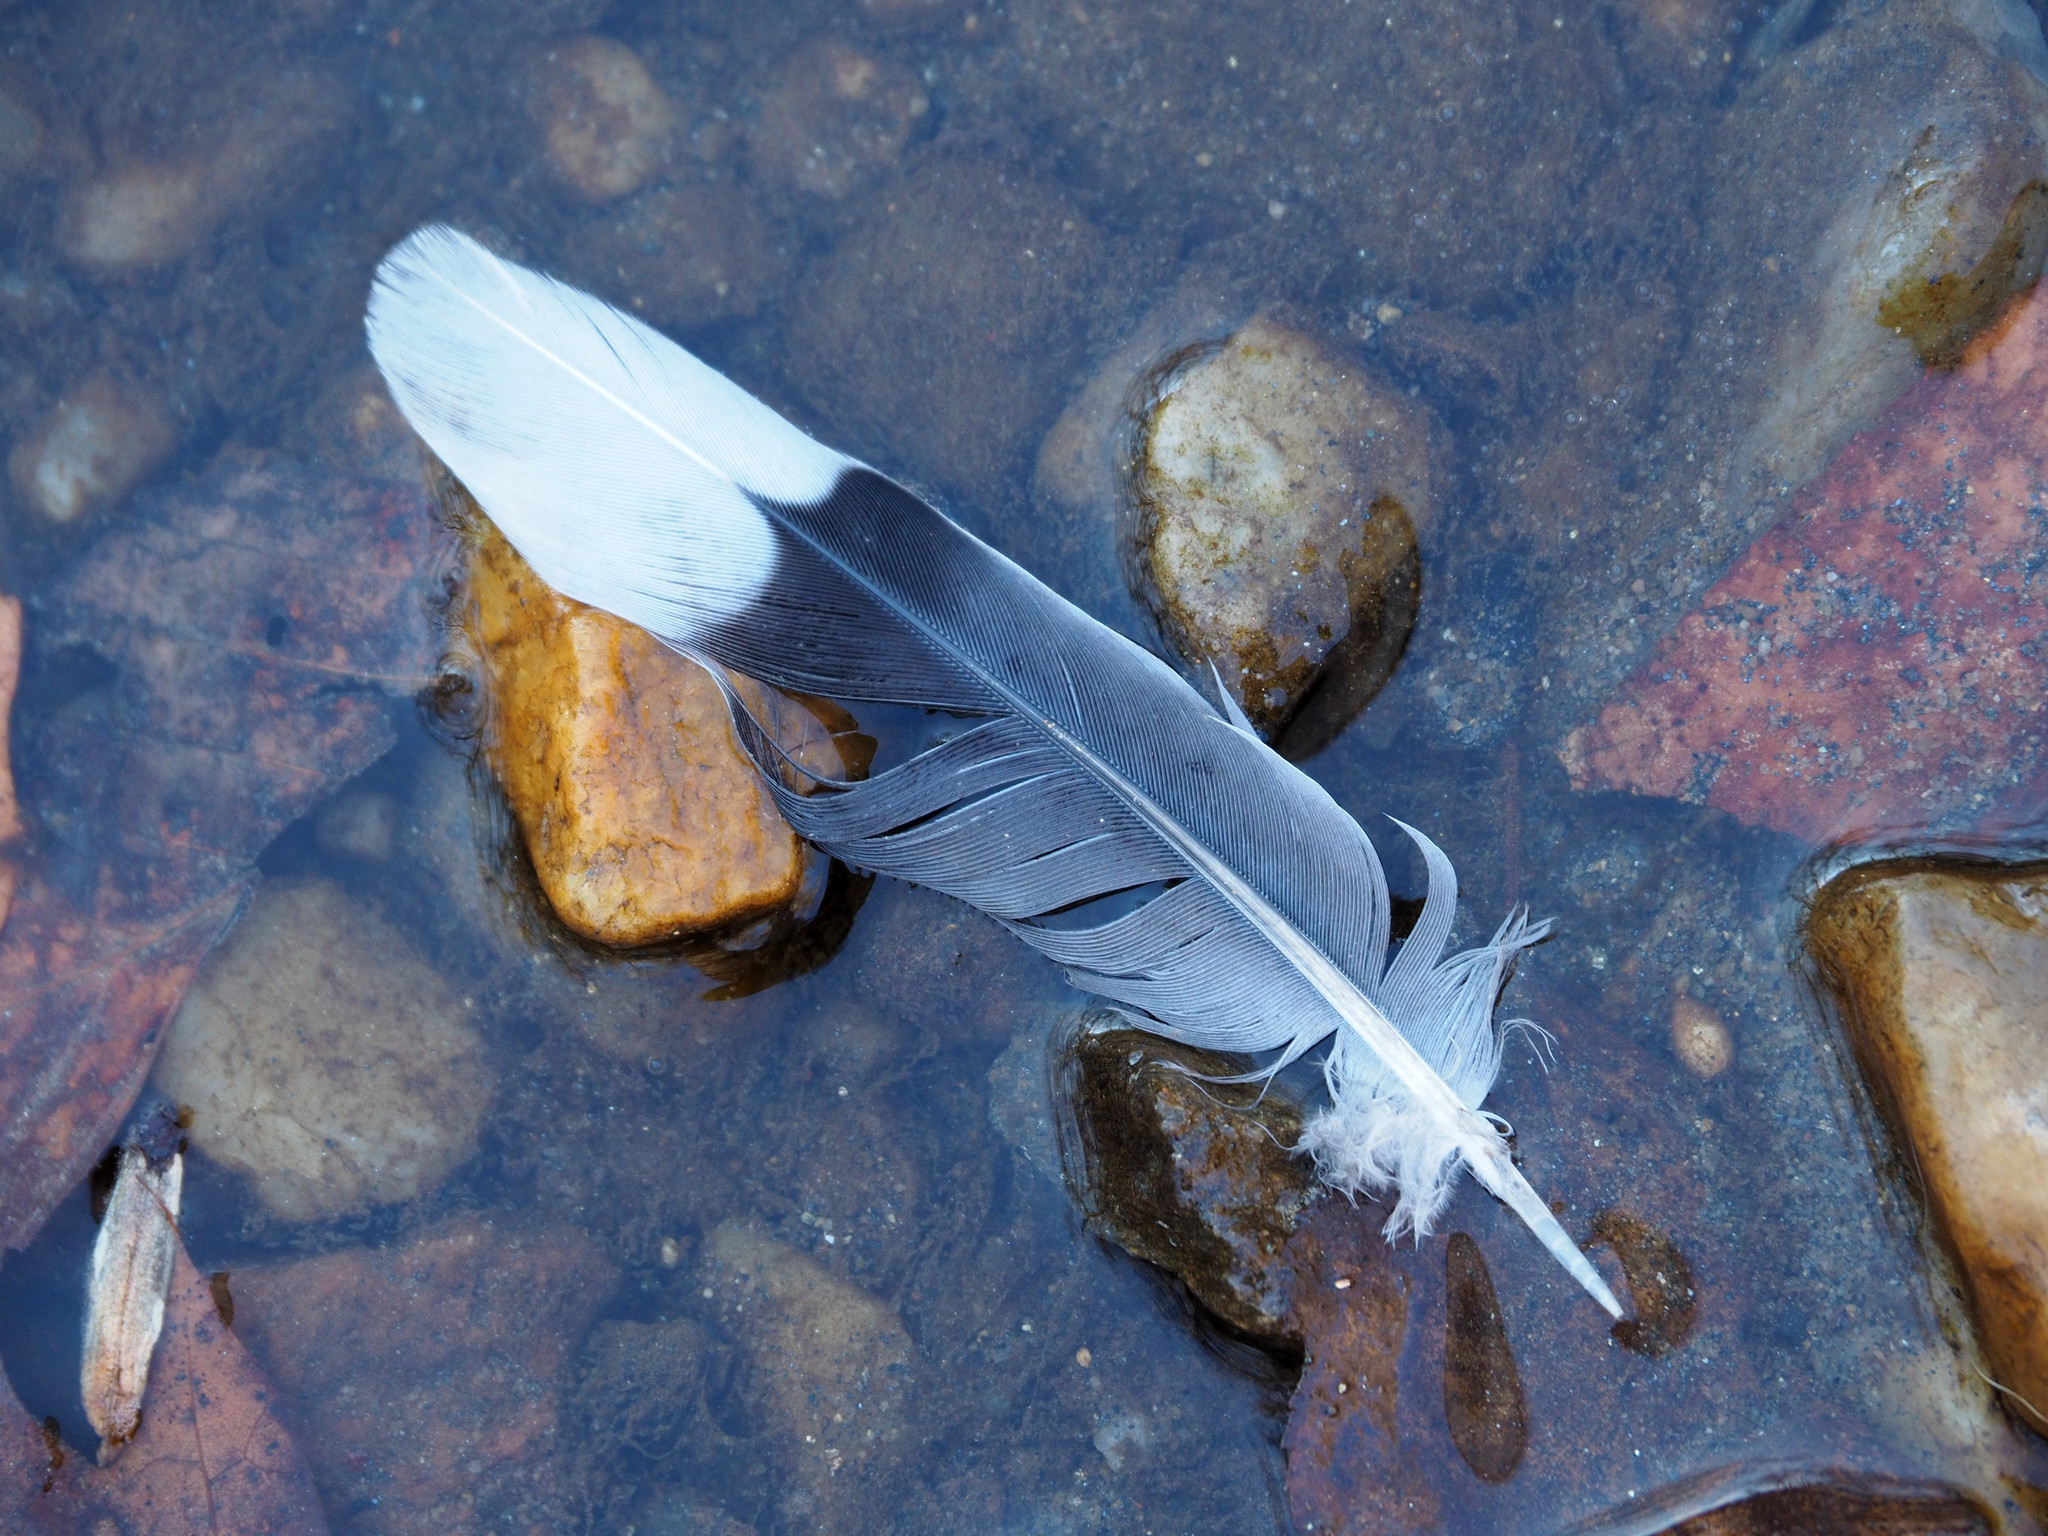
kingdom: Animalia
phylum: Chordata
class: Aves
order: Columbiformes
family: Columbidae
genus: Zenaida
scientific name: Zenaida macroura
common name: Mourning dove
